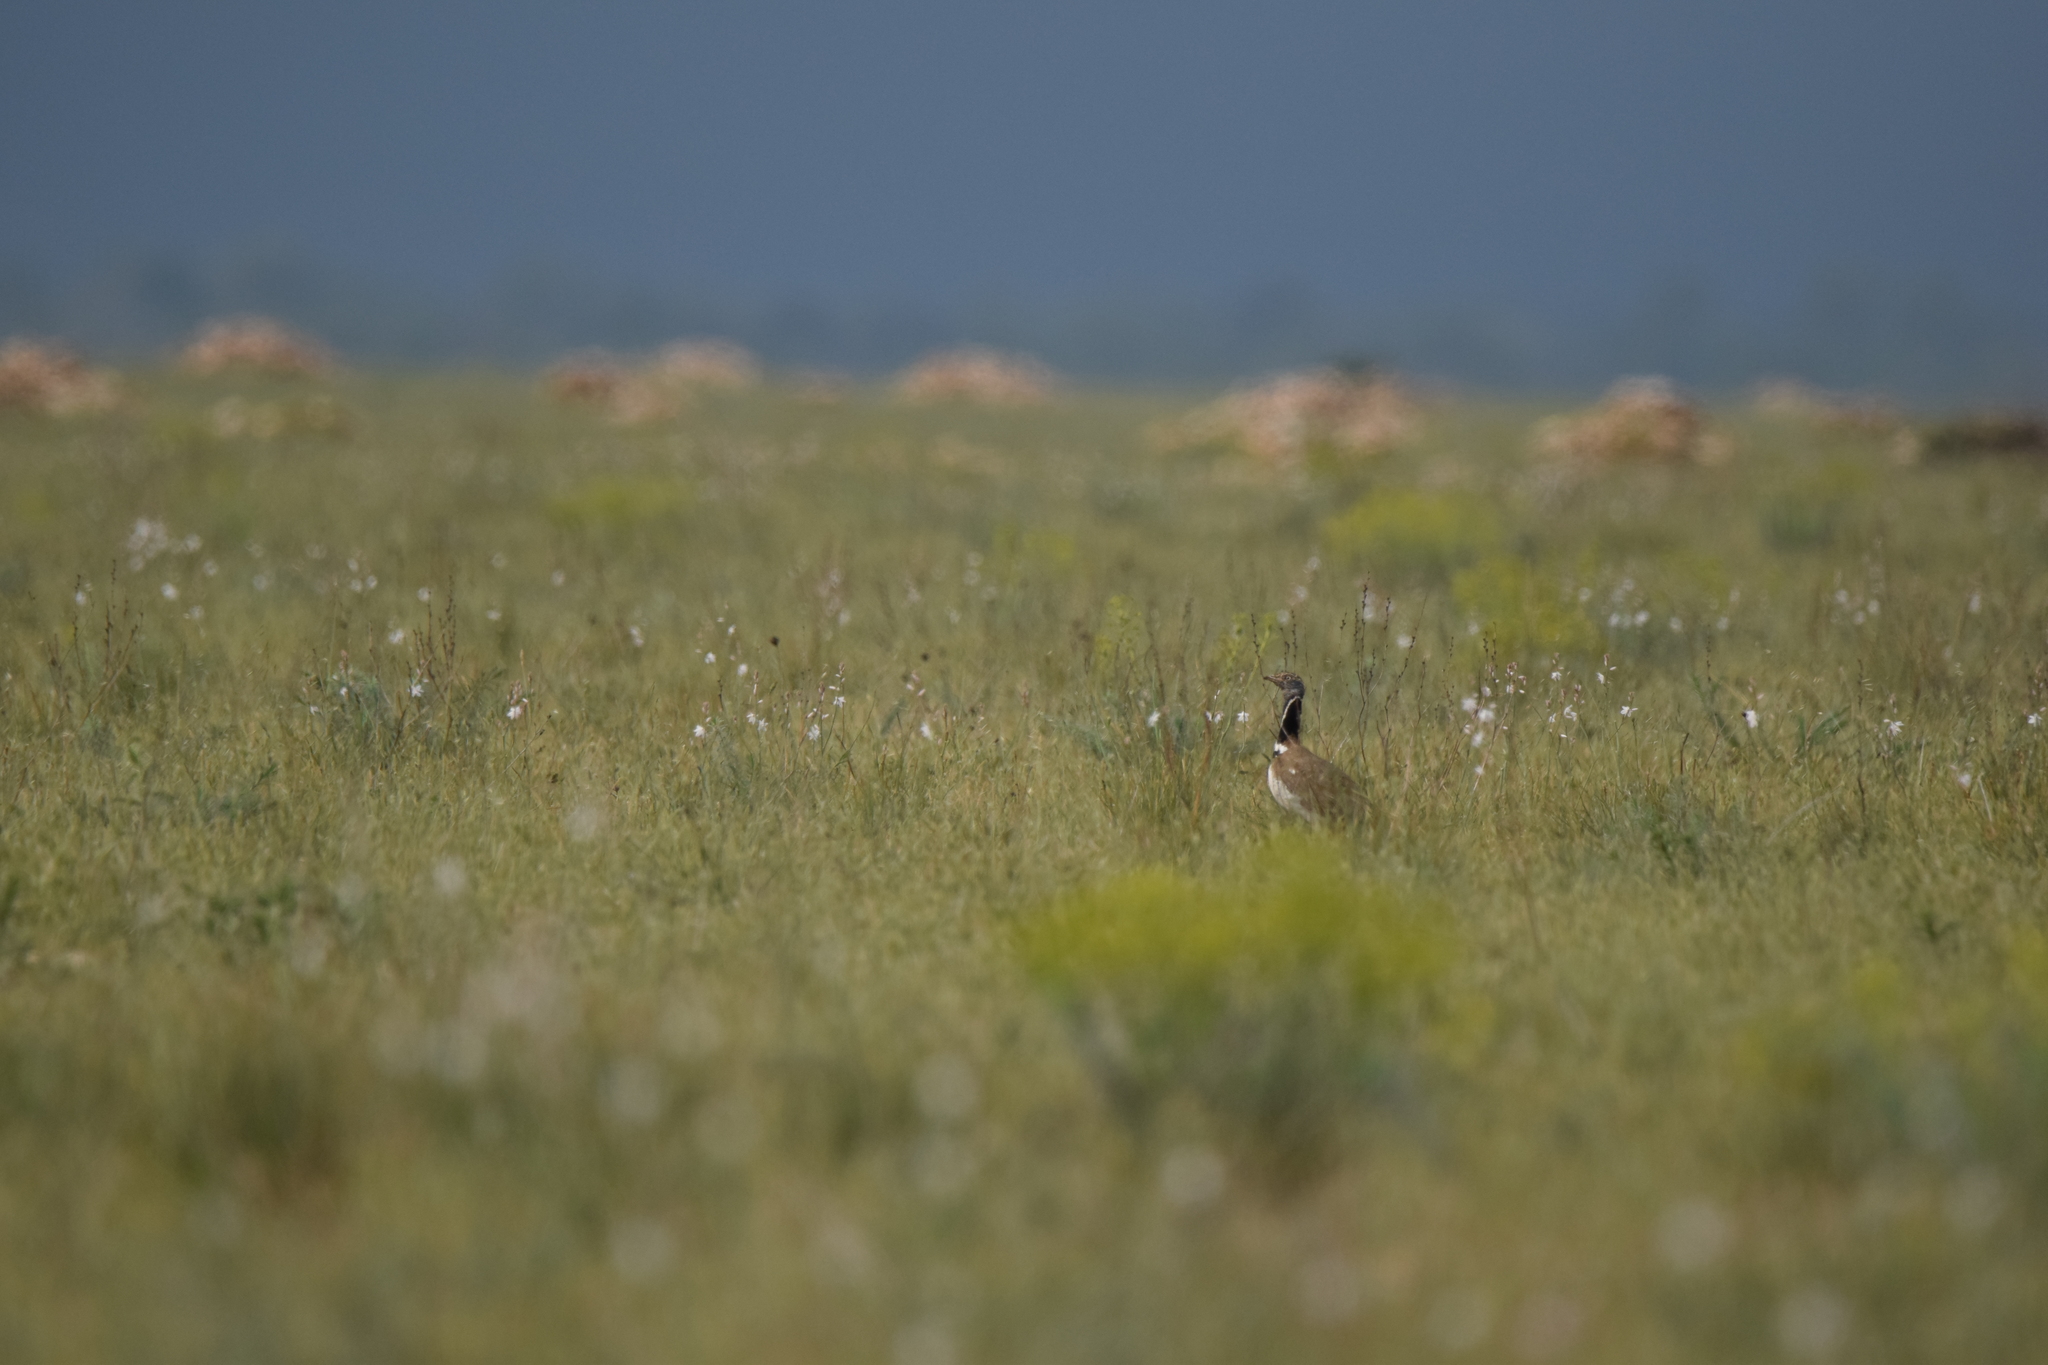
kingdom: Animalia
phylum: Chordata
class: Aves
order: Otidiformes
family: Otididae
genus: Tetrax
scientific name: Tetrax tetrax
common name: Little bustard
